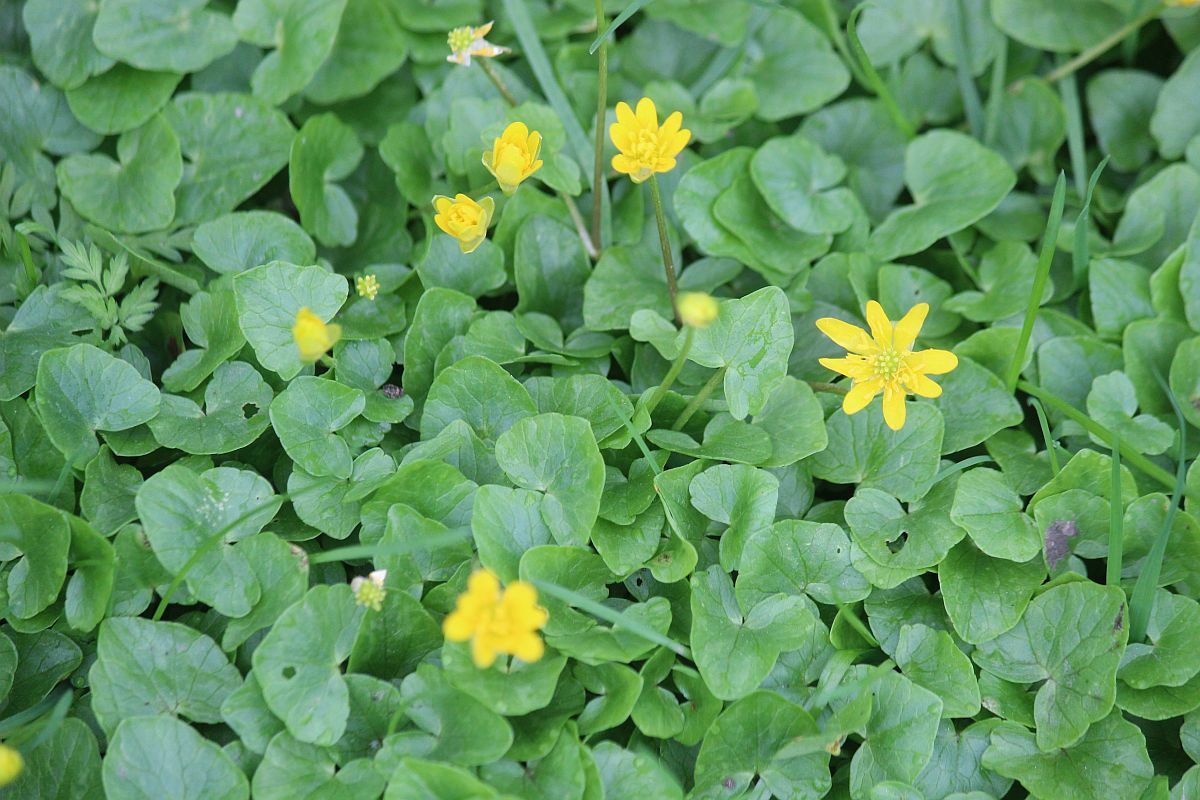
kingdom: Plantae
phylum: Tracheophyta
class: Magnoliopsida
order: Ranunculales
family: Ranunculaceae
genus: Ficaria
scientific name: Ficaria verna
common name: Lesser celandine
